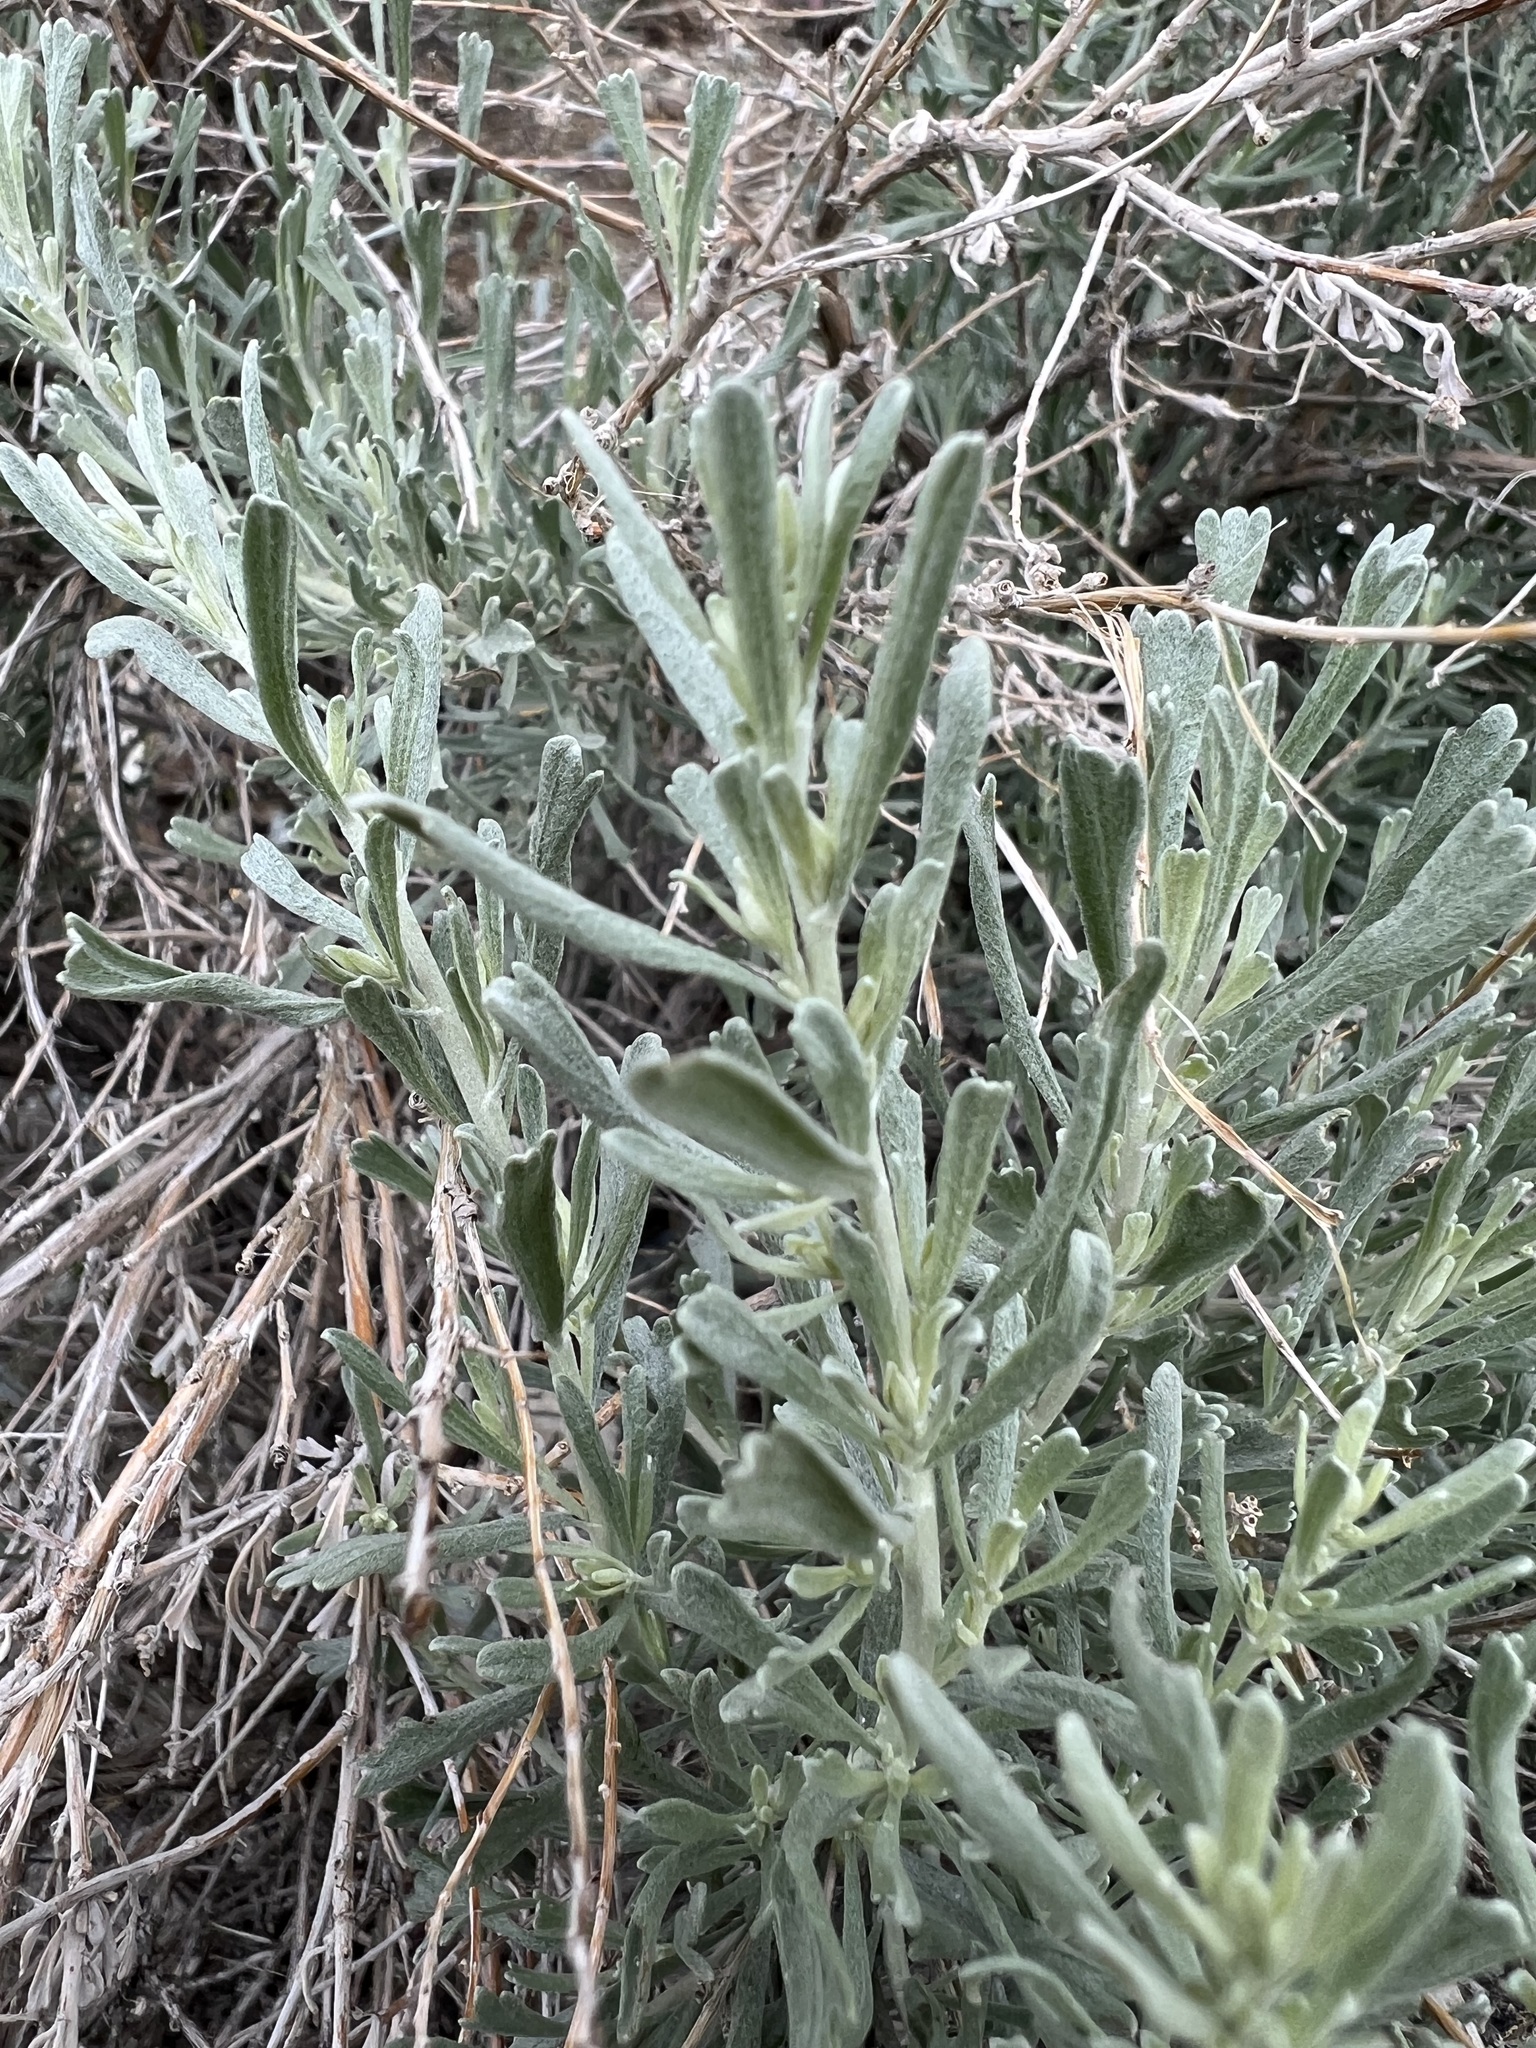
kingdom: Plantae
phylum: Tracheophyta
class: Magnoliopsida
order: Asterales
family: Asteraceae
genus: Artemisia
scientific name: Artemisia tridentata
